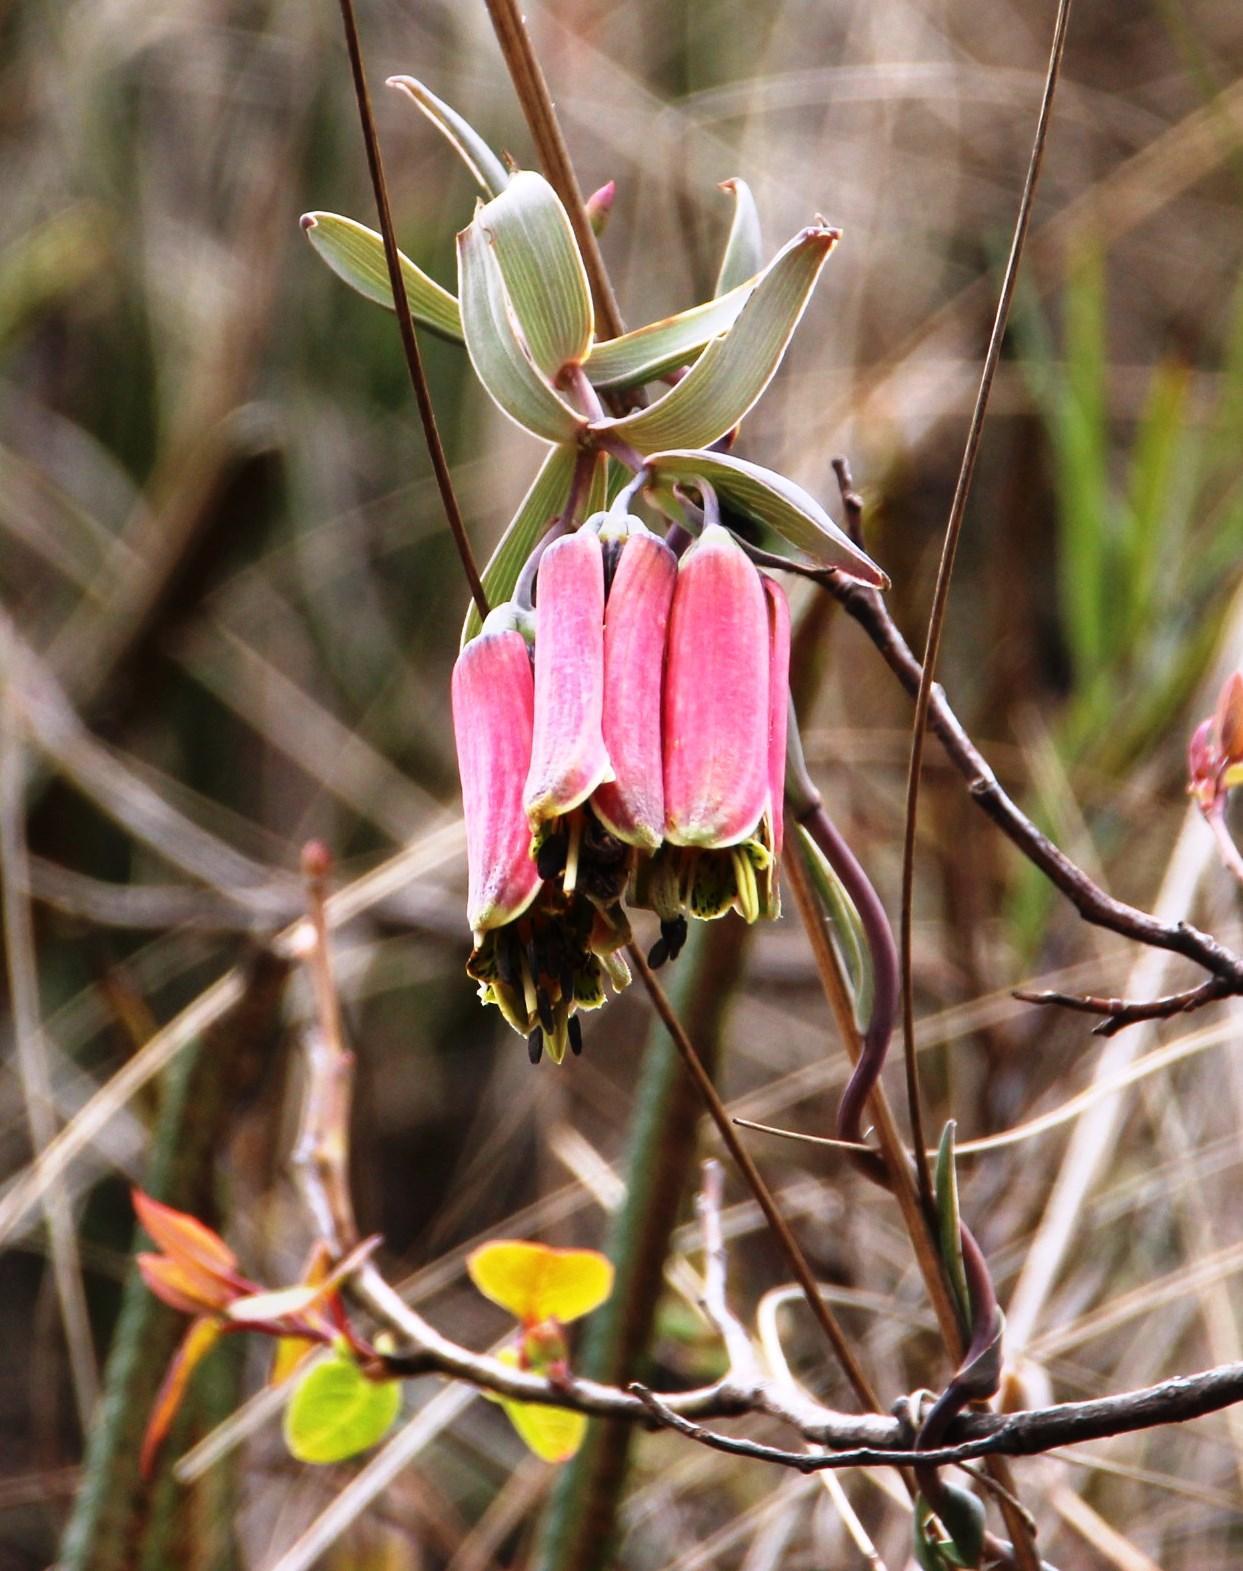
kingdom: Plantae
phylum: Tracheophyta
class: Liliopsida
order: Liliales
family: Alstroemeriaceae
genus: Bomarea
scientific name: Bomarea crocea
